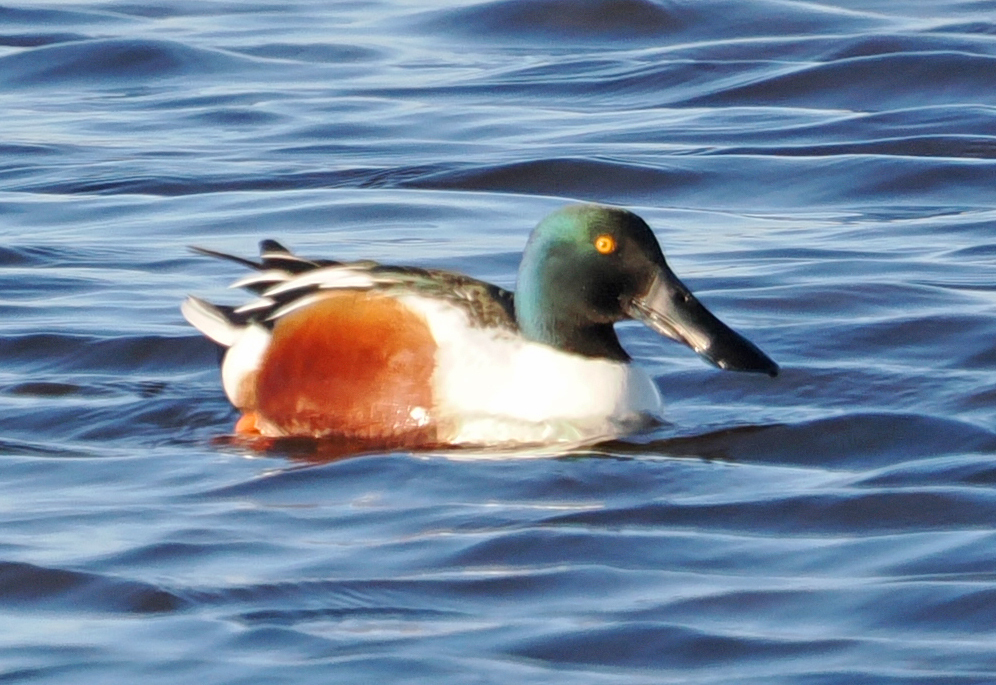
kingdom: Animalia
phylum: Chordata
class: Aves
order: Anseriformes
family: Anatidae
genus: Spatula
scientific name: Spatula clypeata
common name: Northern shoveler
